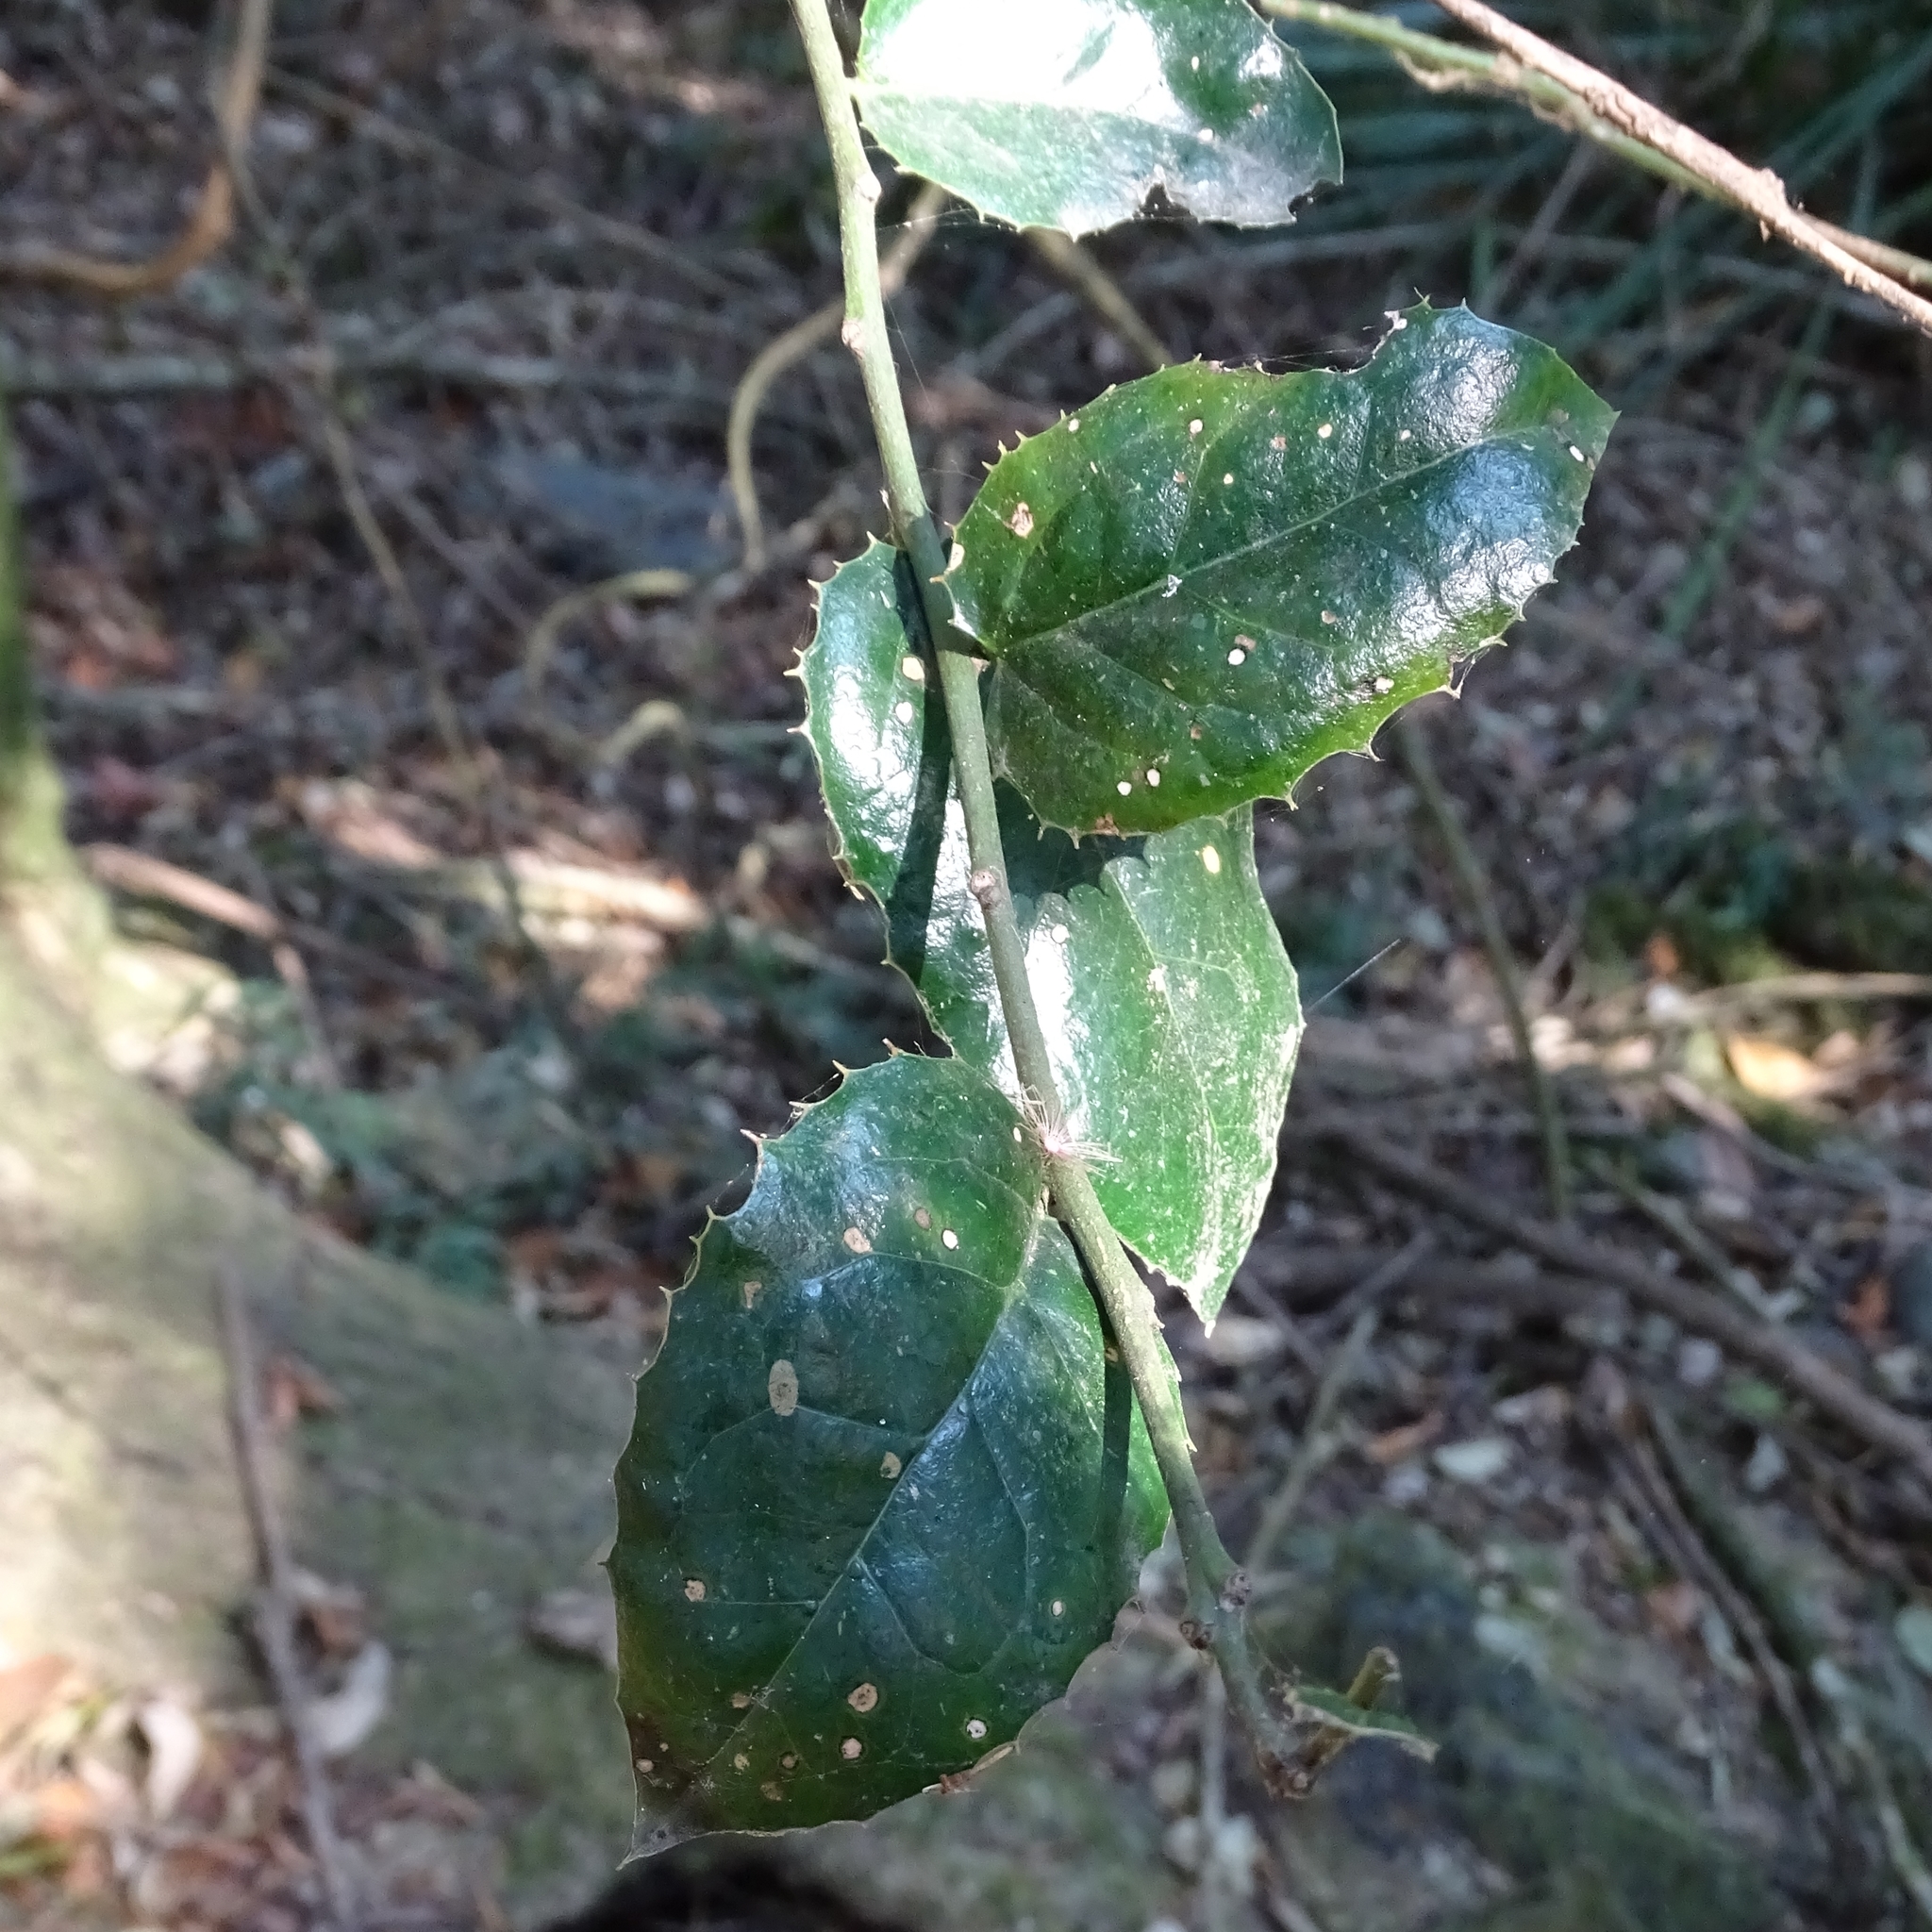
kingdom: Plantae
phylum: Tracheophyta
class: Magnoliopsida
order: Cardiopteridales
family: Cardiopteridaceae
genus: Citronella
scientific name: Citronella mucronata
